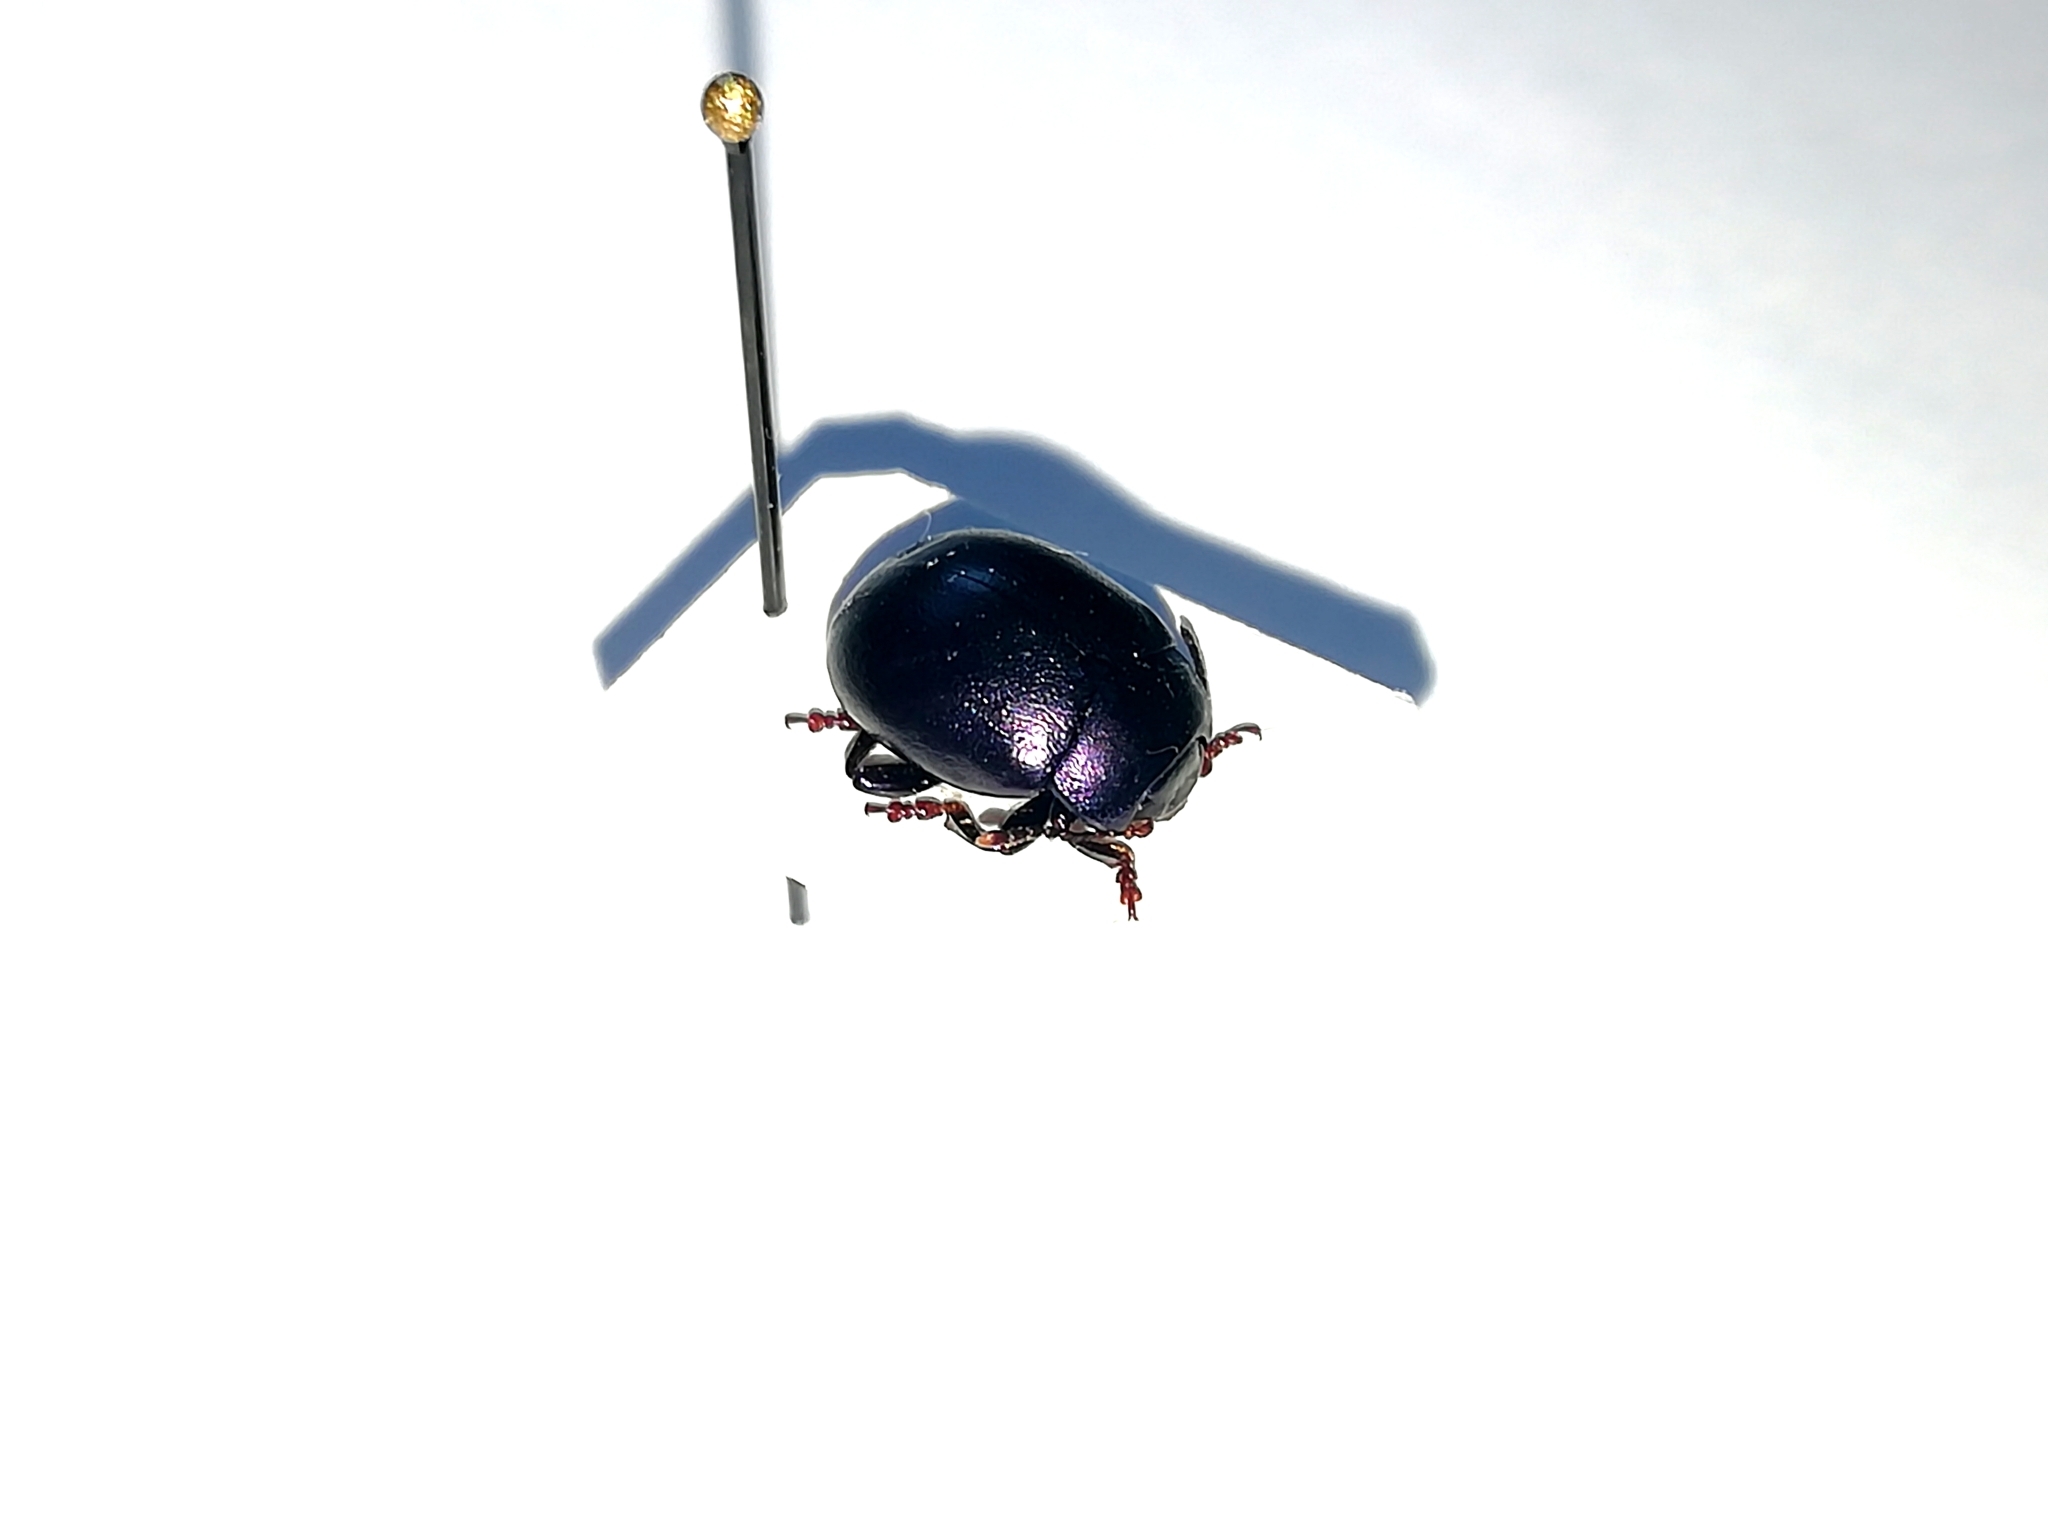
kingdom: Animalia
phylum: Arthropoda
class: Insecta
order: Coleoptera
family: Chrysomelidae
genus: Chrysolina
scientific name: Chrysolina sturmi
